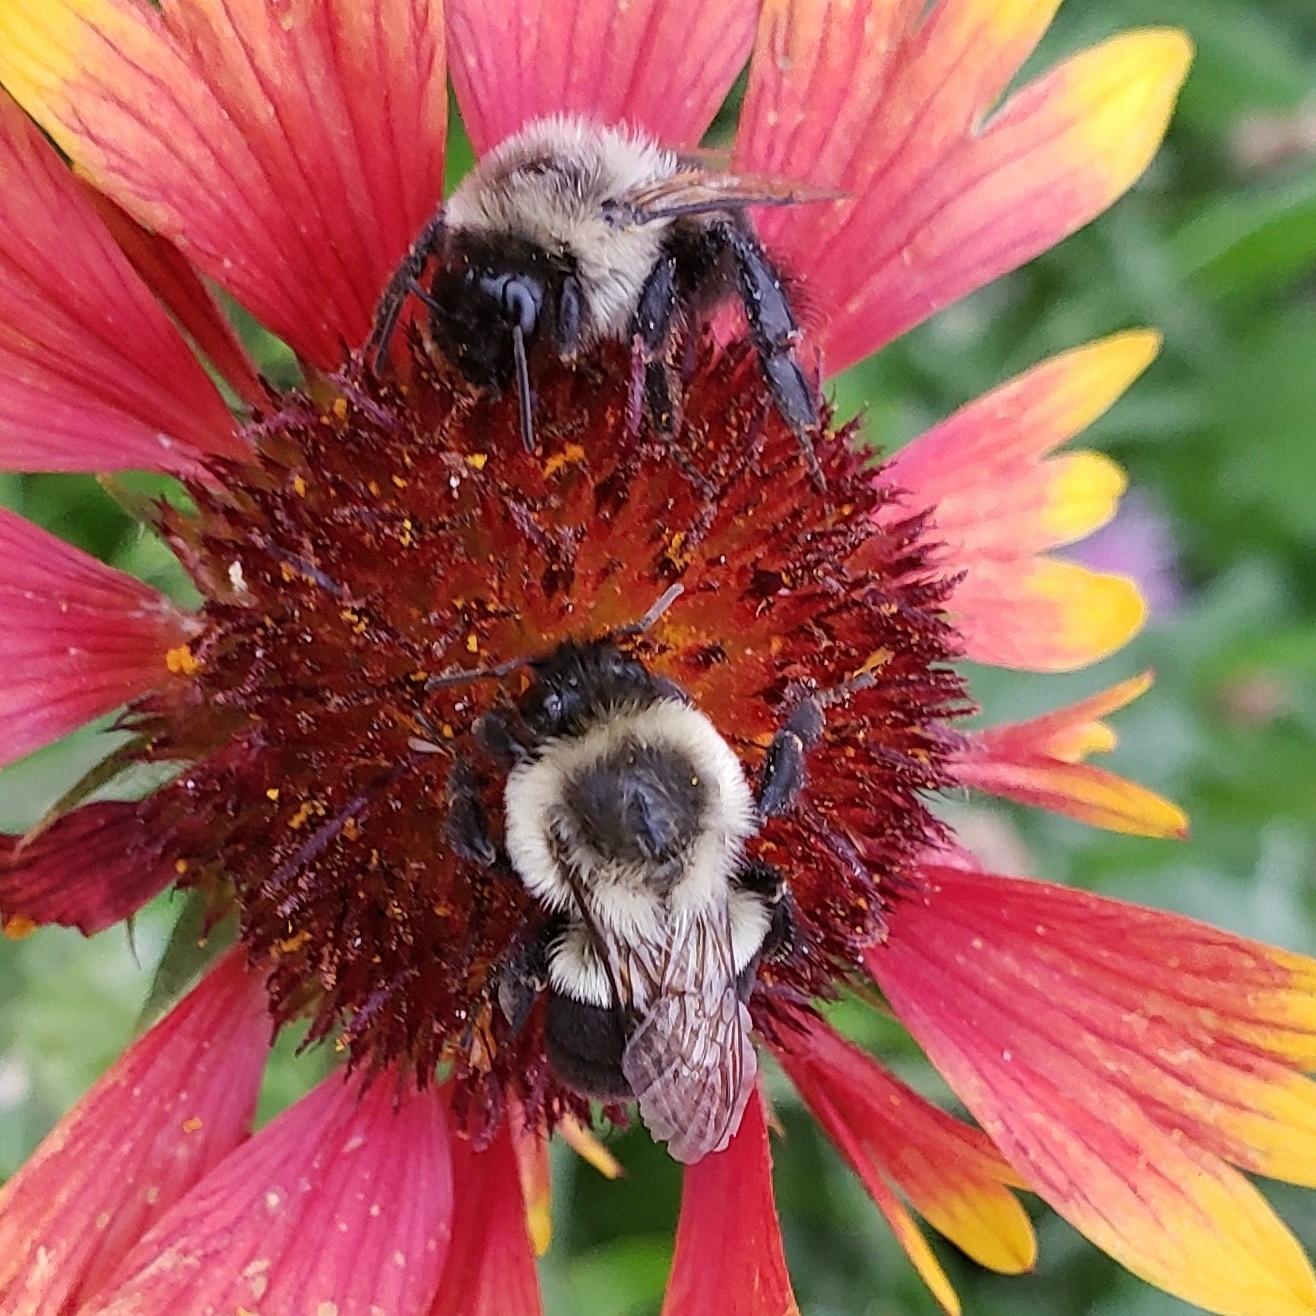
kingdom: Animalia
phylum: Arthropoda
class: Insecta
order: Hymenoptera
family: Apidae
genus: Bombus
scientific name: Bombus impatiens
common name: Common eastern bumble bee
